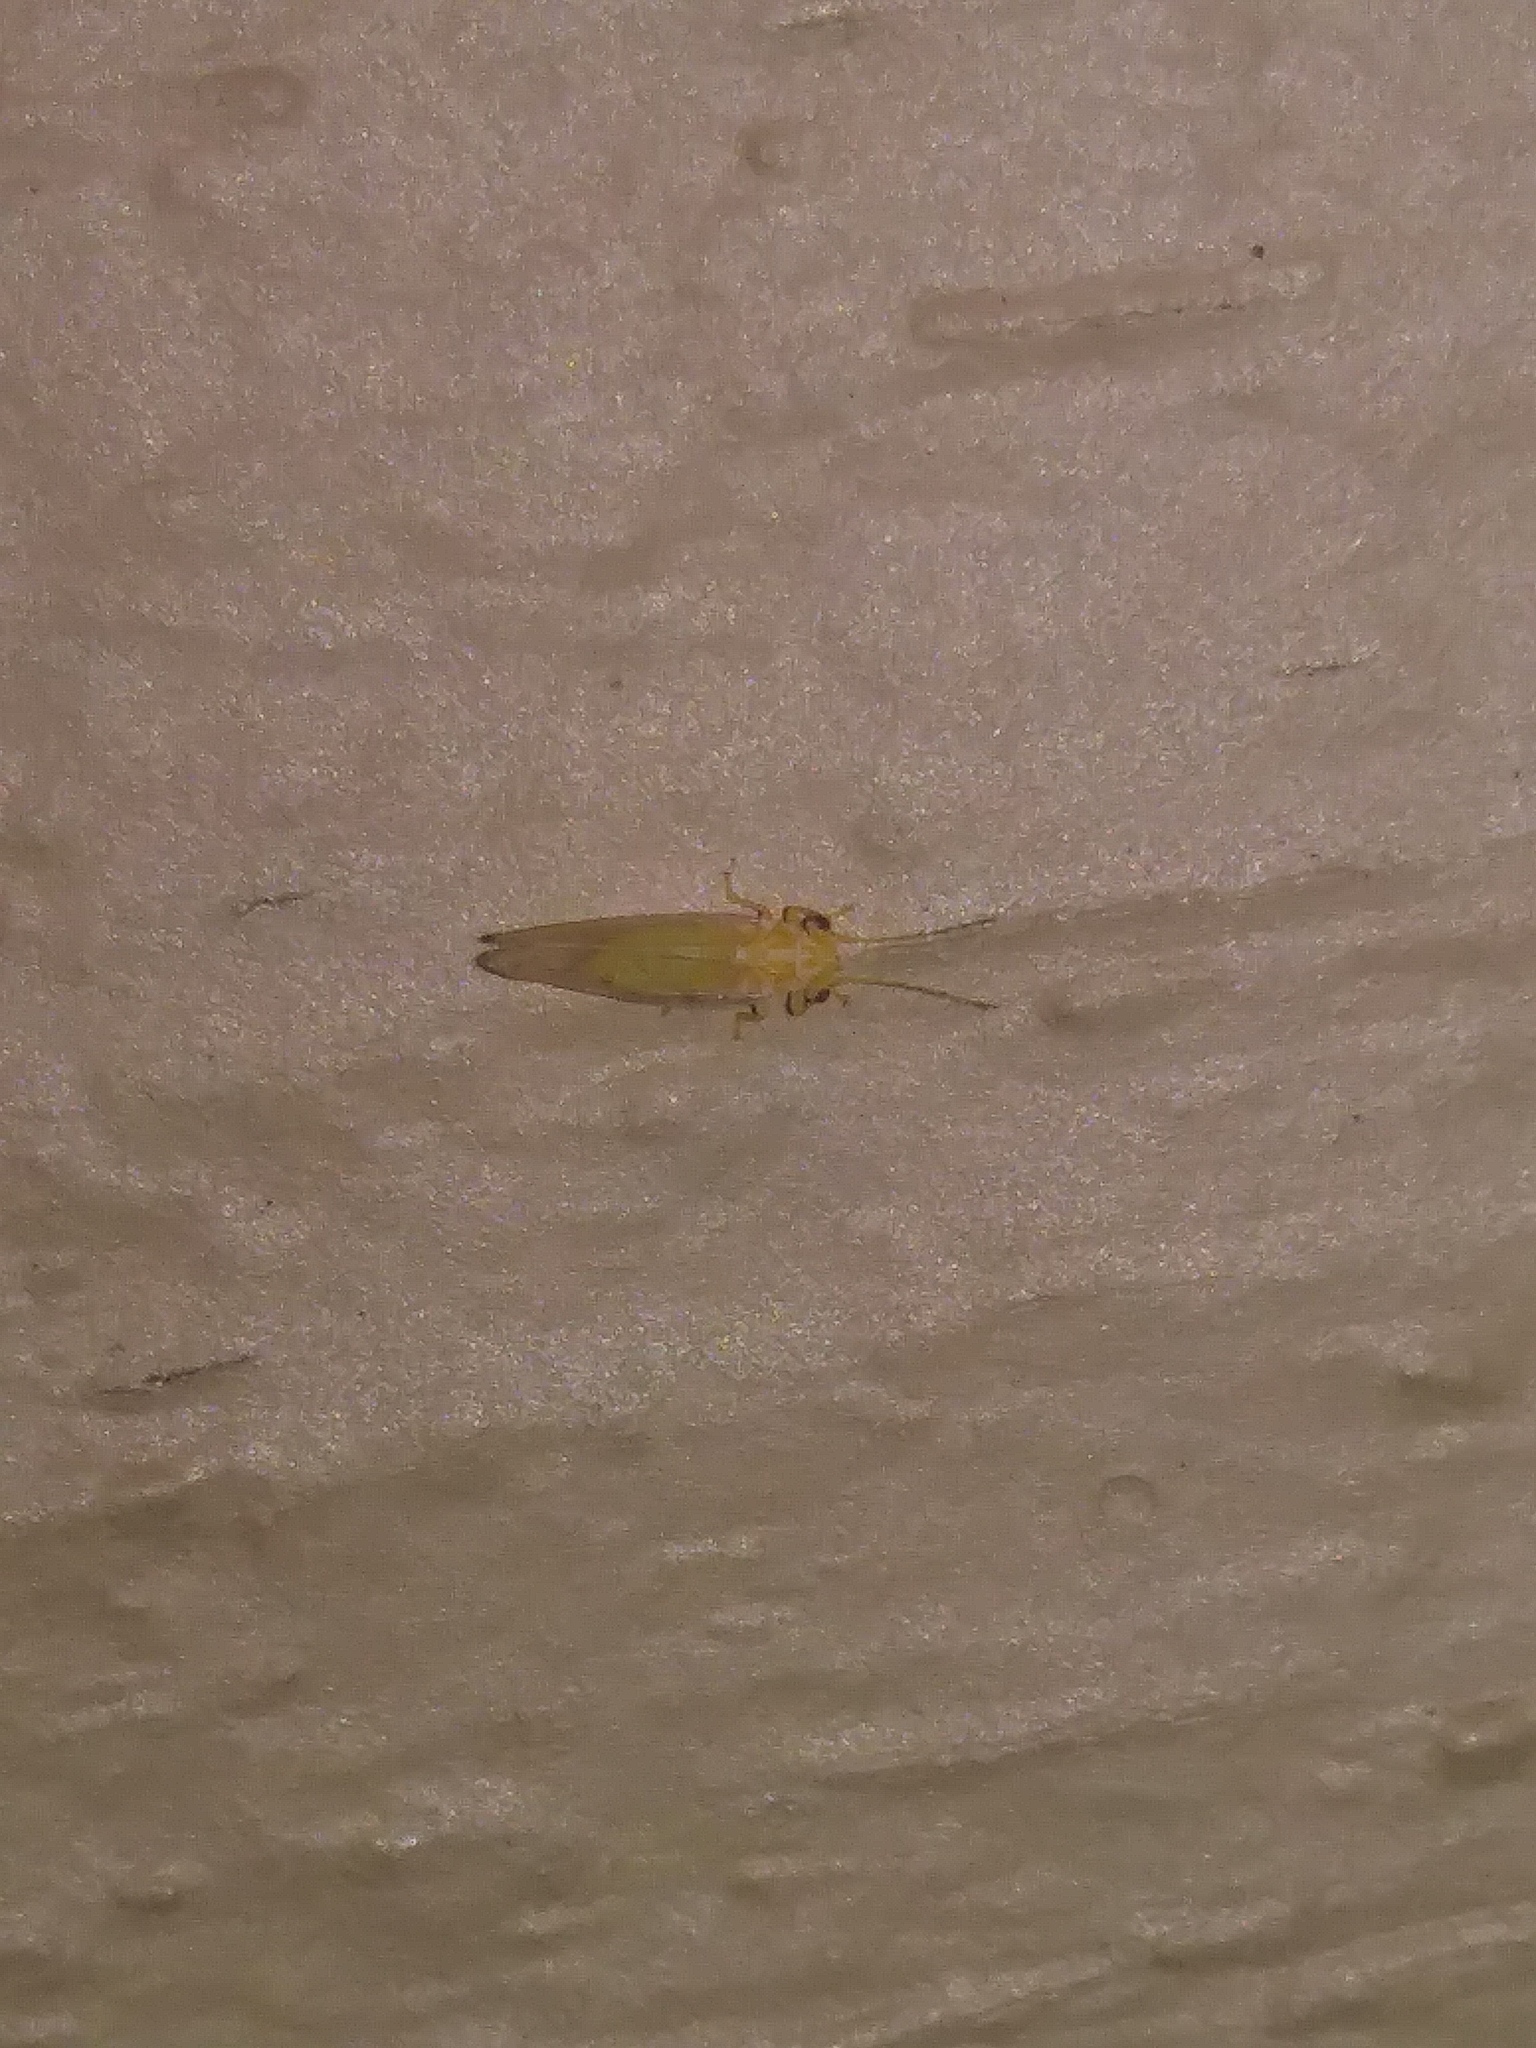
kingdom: Animalia
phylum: Arthropoda
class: Insecta
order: Hemiptera
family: Psyllidae
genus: Cacopsylla
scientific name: Cacopsylla annulata
